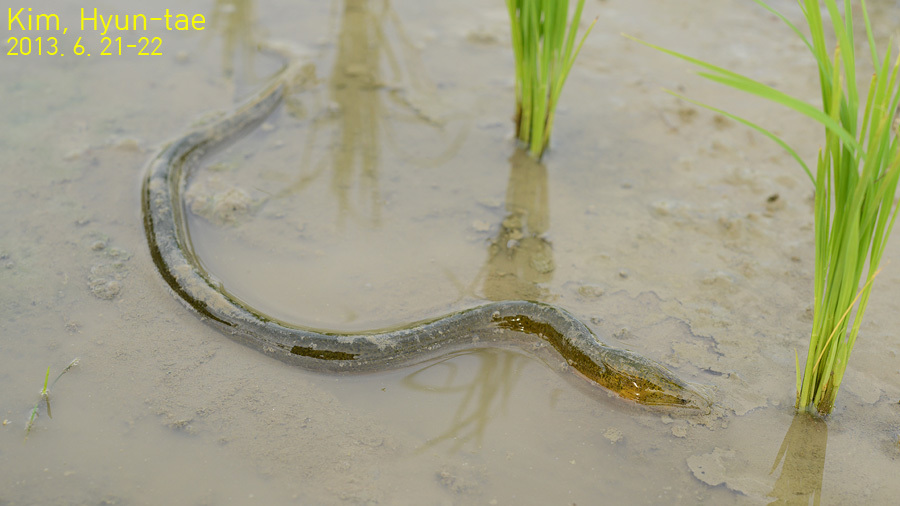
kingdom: Animalia
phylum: Chordata
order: Synbranchiformes
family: Synbranchidae
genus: Monopterus
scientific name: Monopterus albus
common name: Asian swamp eel
